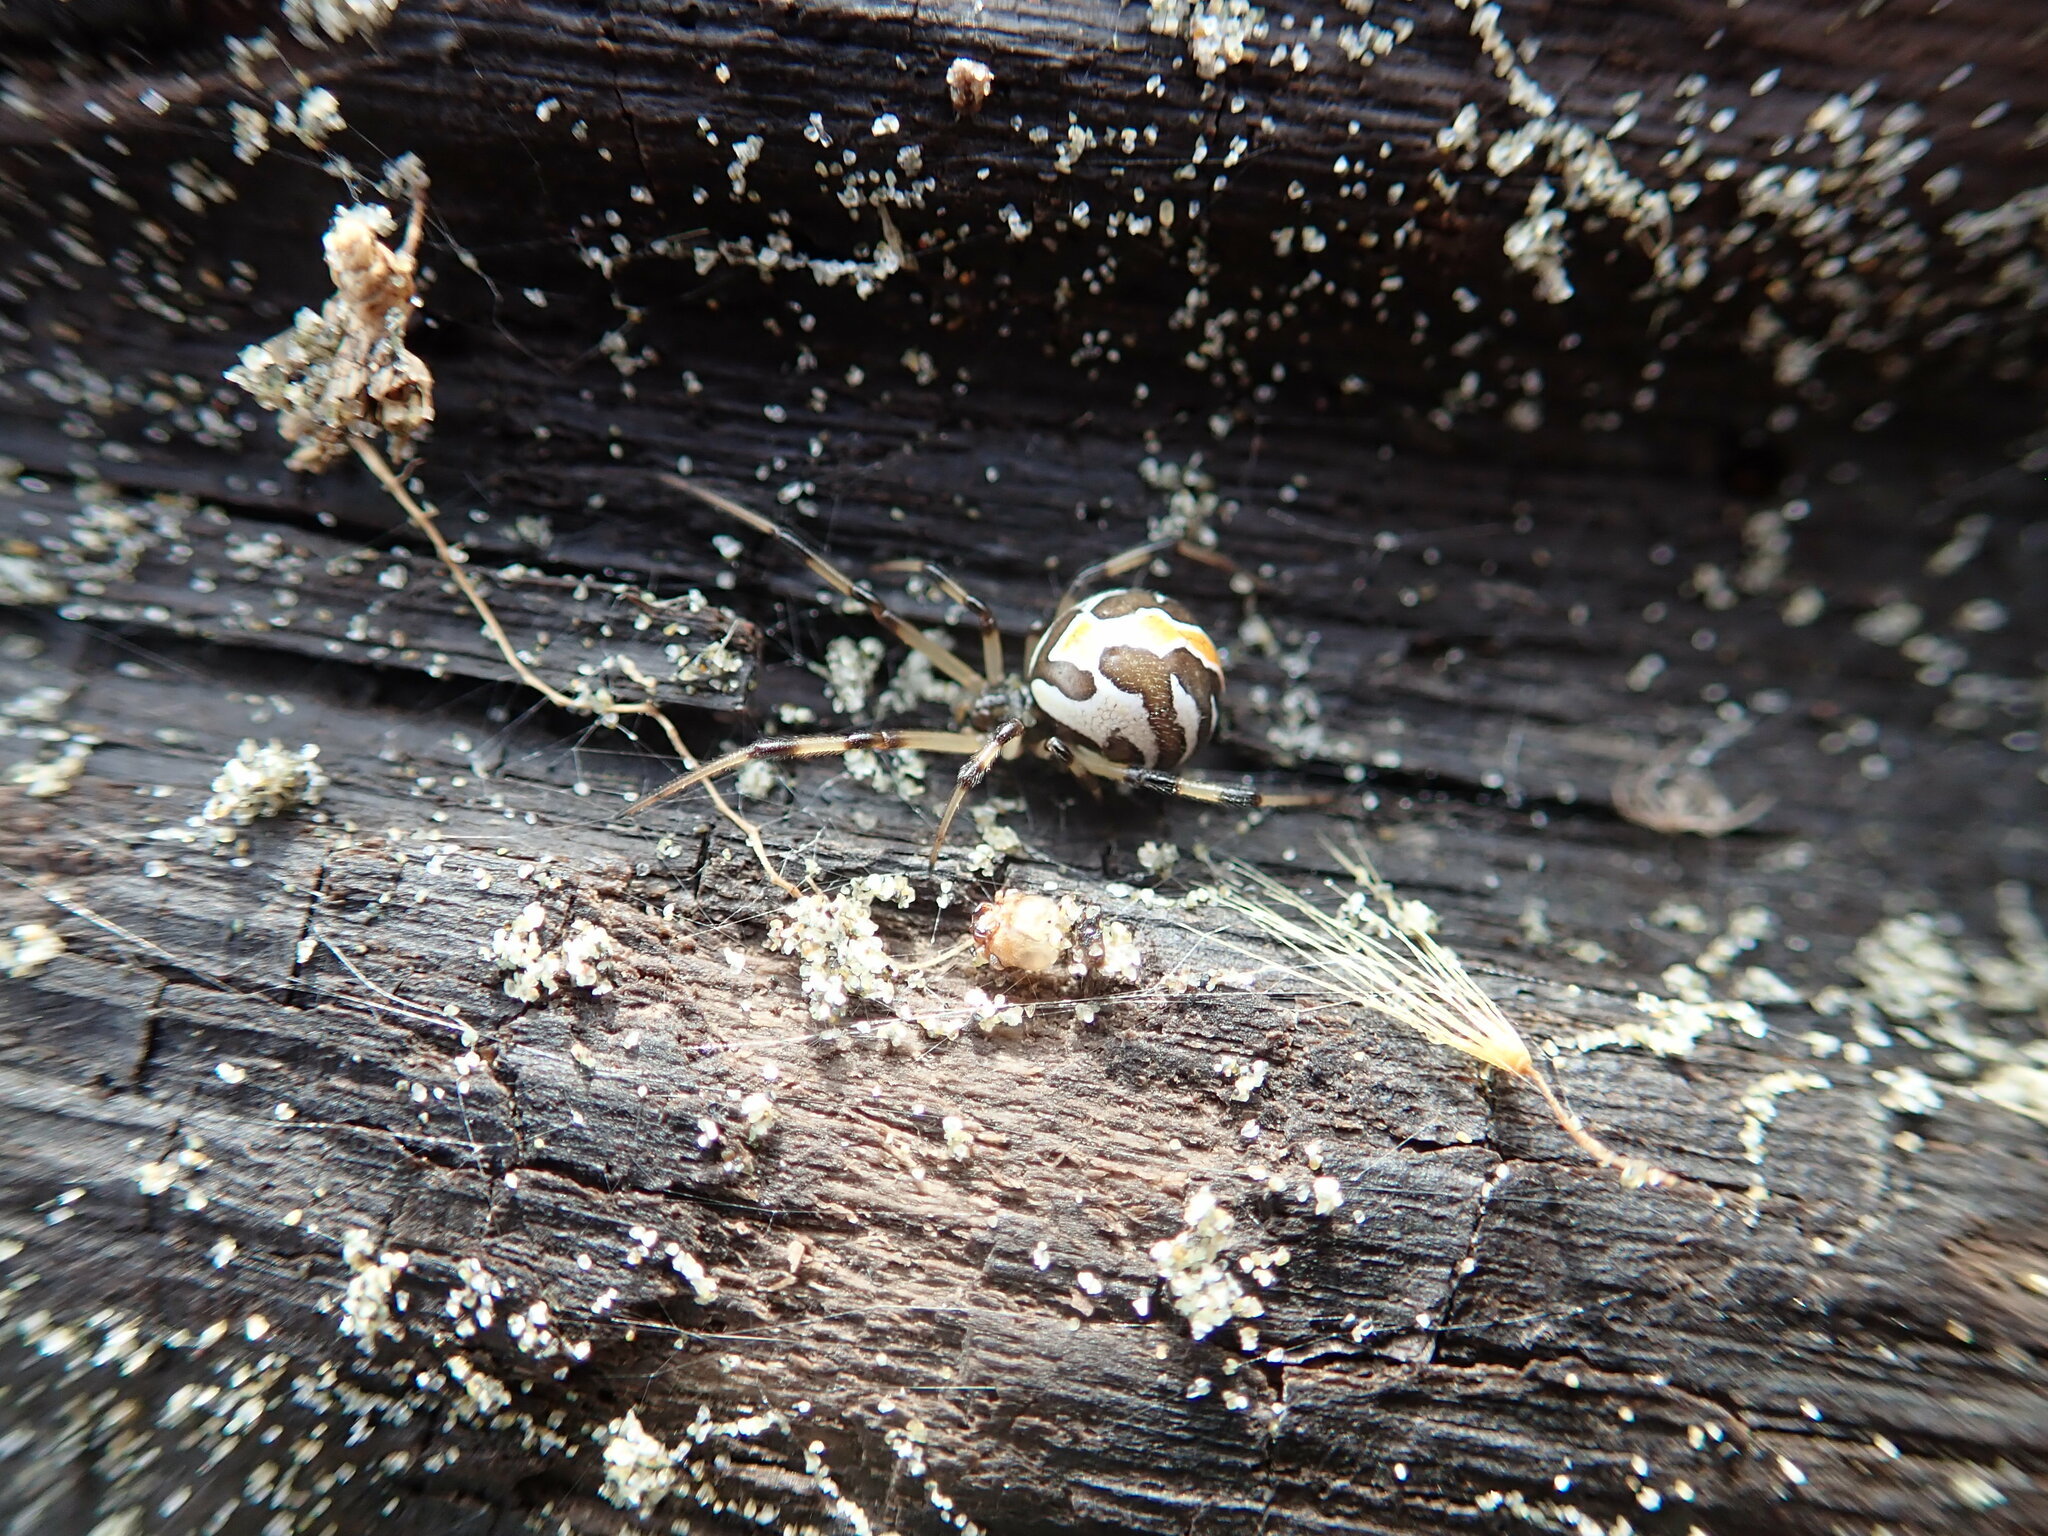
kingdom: Animalia
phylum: Arthropoda
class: Arachnida
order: Araneae
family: Theridiidae
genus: Latrodectus
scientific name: Latrodectus katipo
